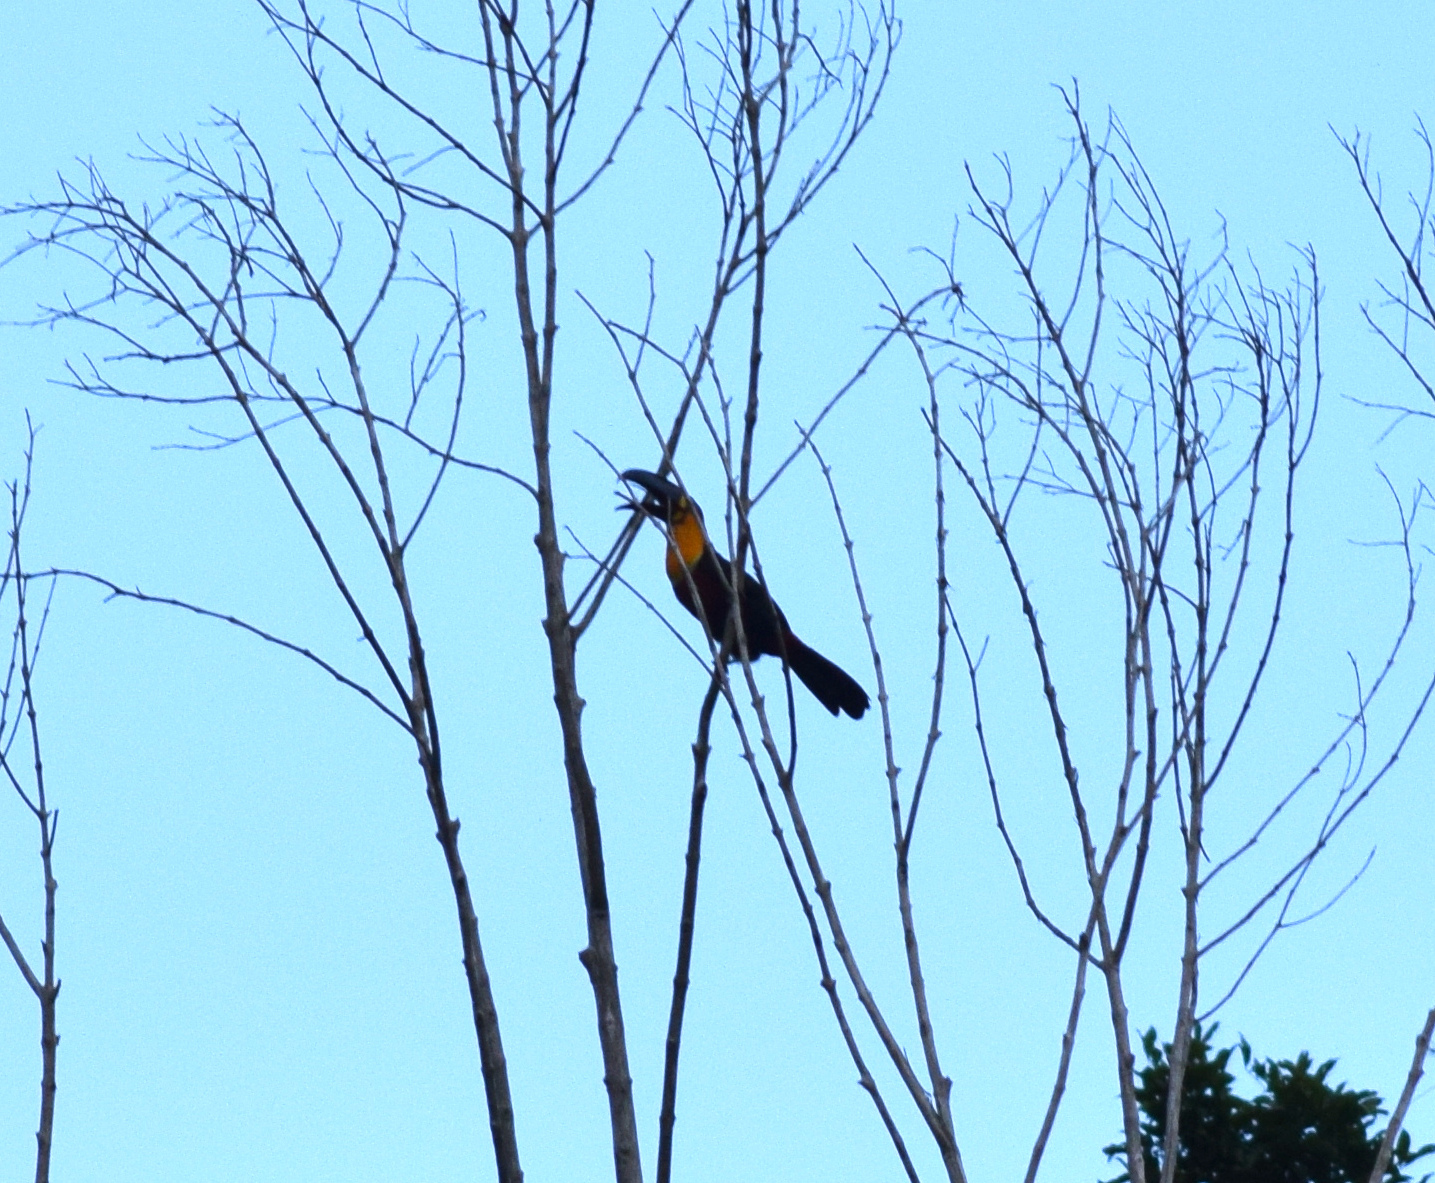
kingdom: Animalia
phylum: Chordata
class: Aves
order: Piciformes
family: Ramphastidae
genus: Ramphastos
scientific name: Ramphastos vitellinus
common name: Channel-billed toucan
